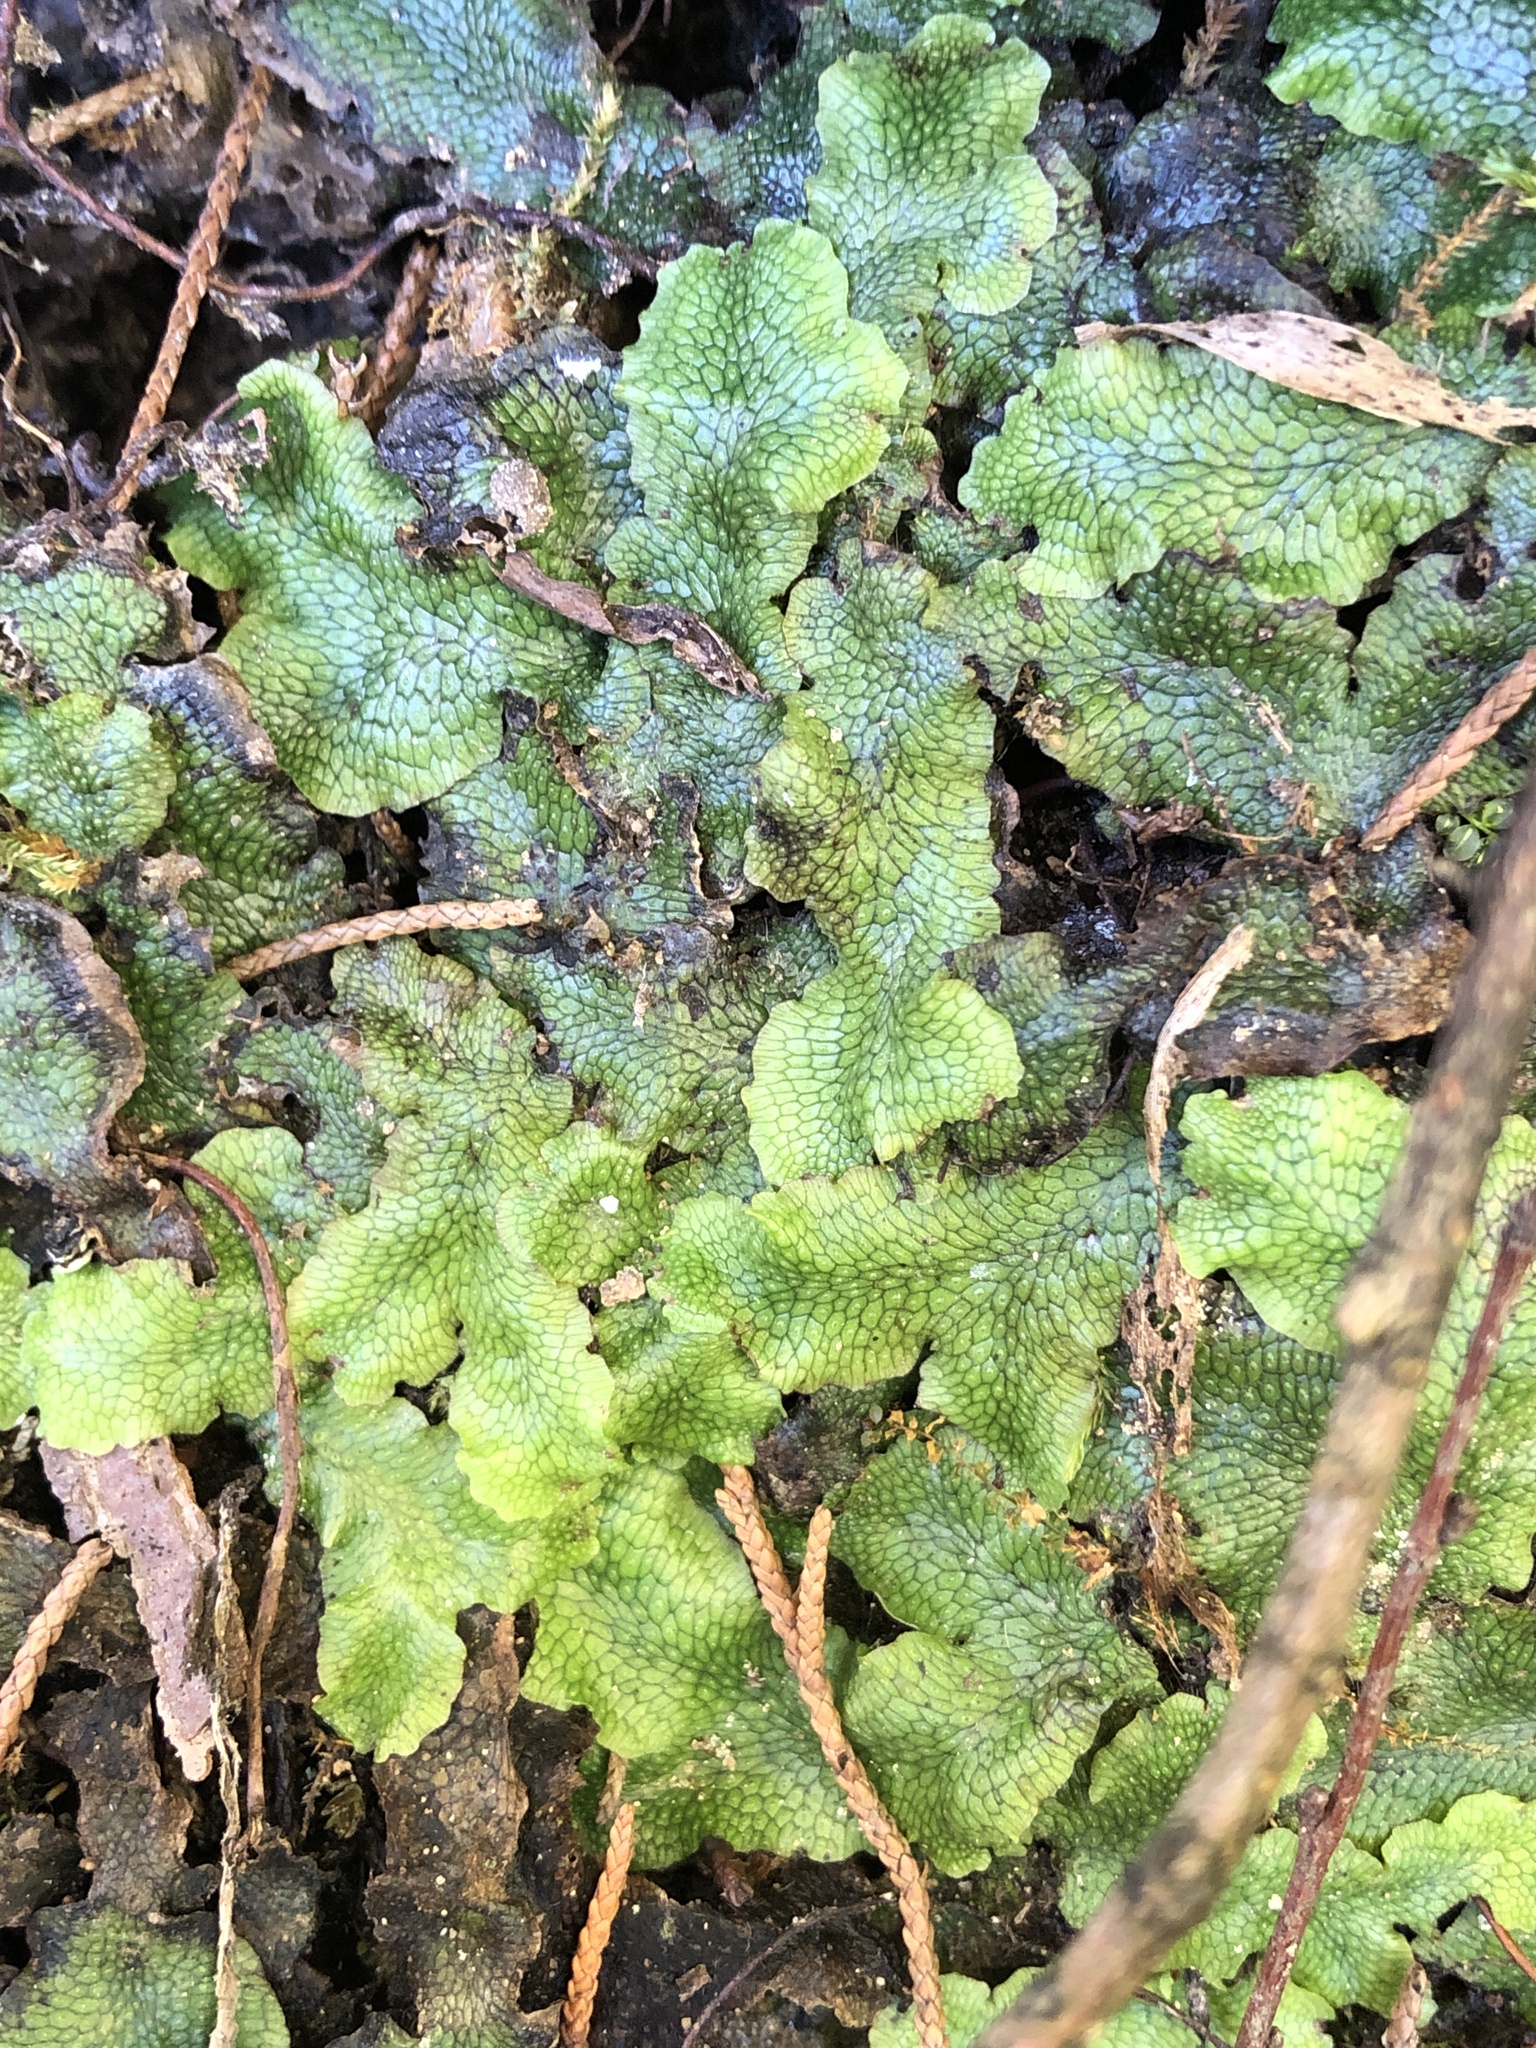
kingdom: Plantae
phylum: Marchantiophyta
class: Marchantiopsida
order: Marchantiales
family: Conocephalaceae
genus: Conocephalum
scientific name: Conocephalum salebrosum
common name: Cat-tongue liverwort
